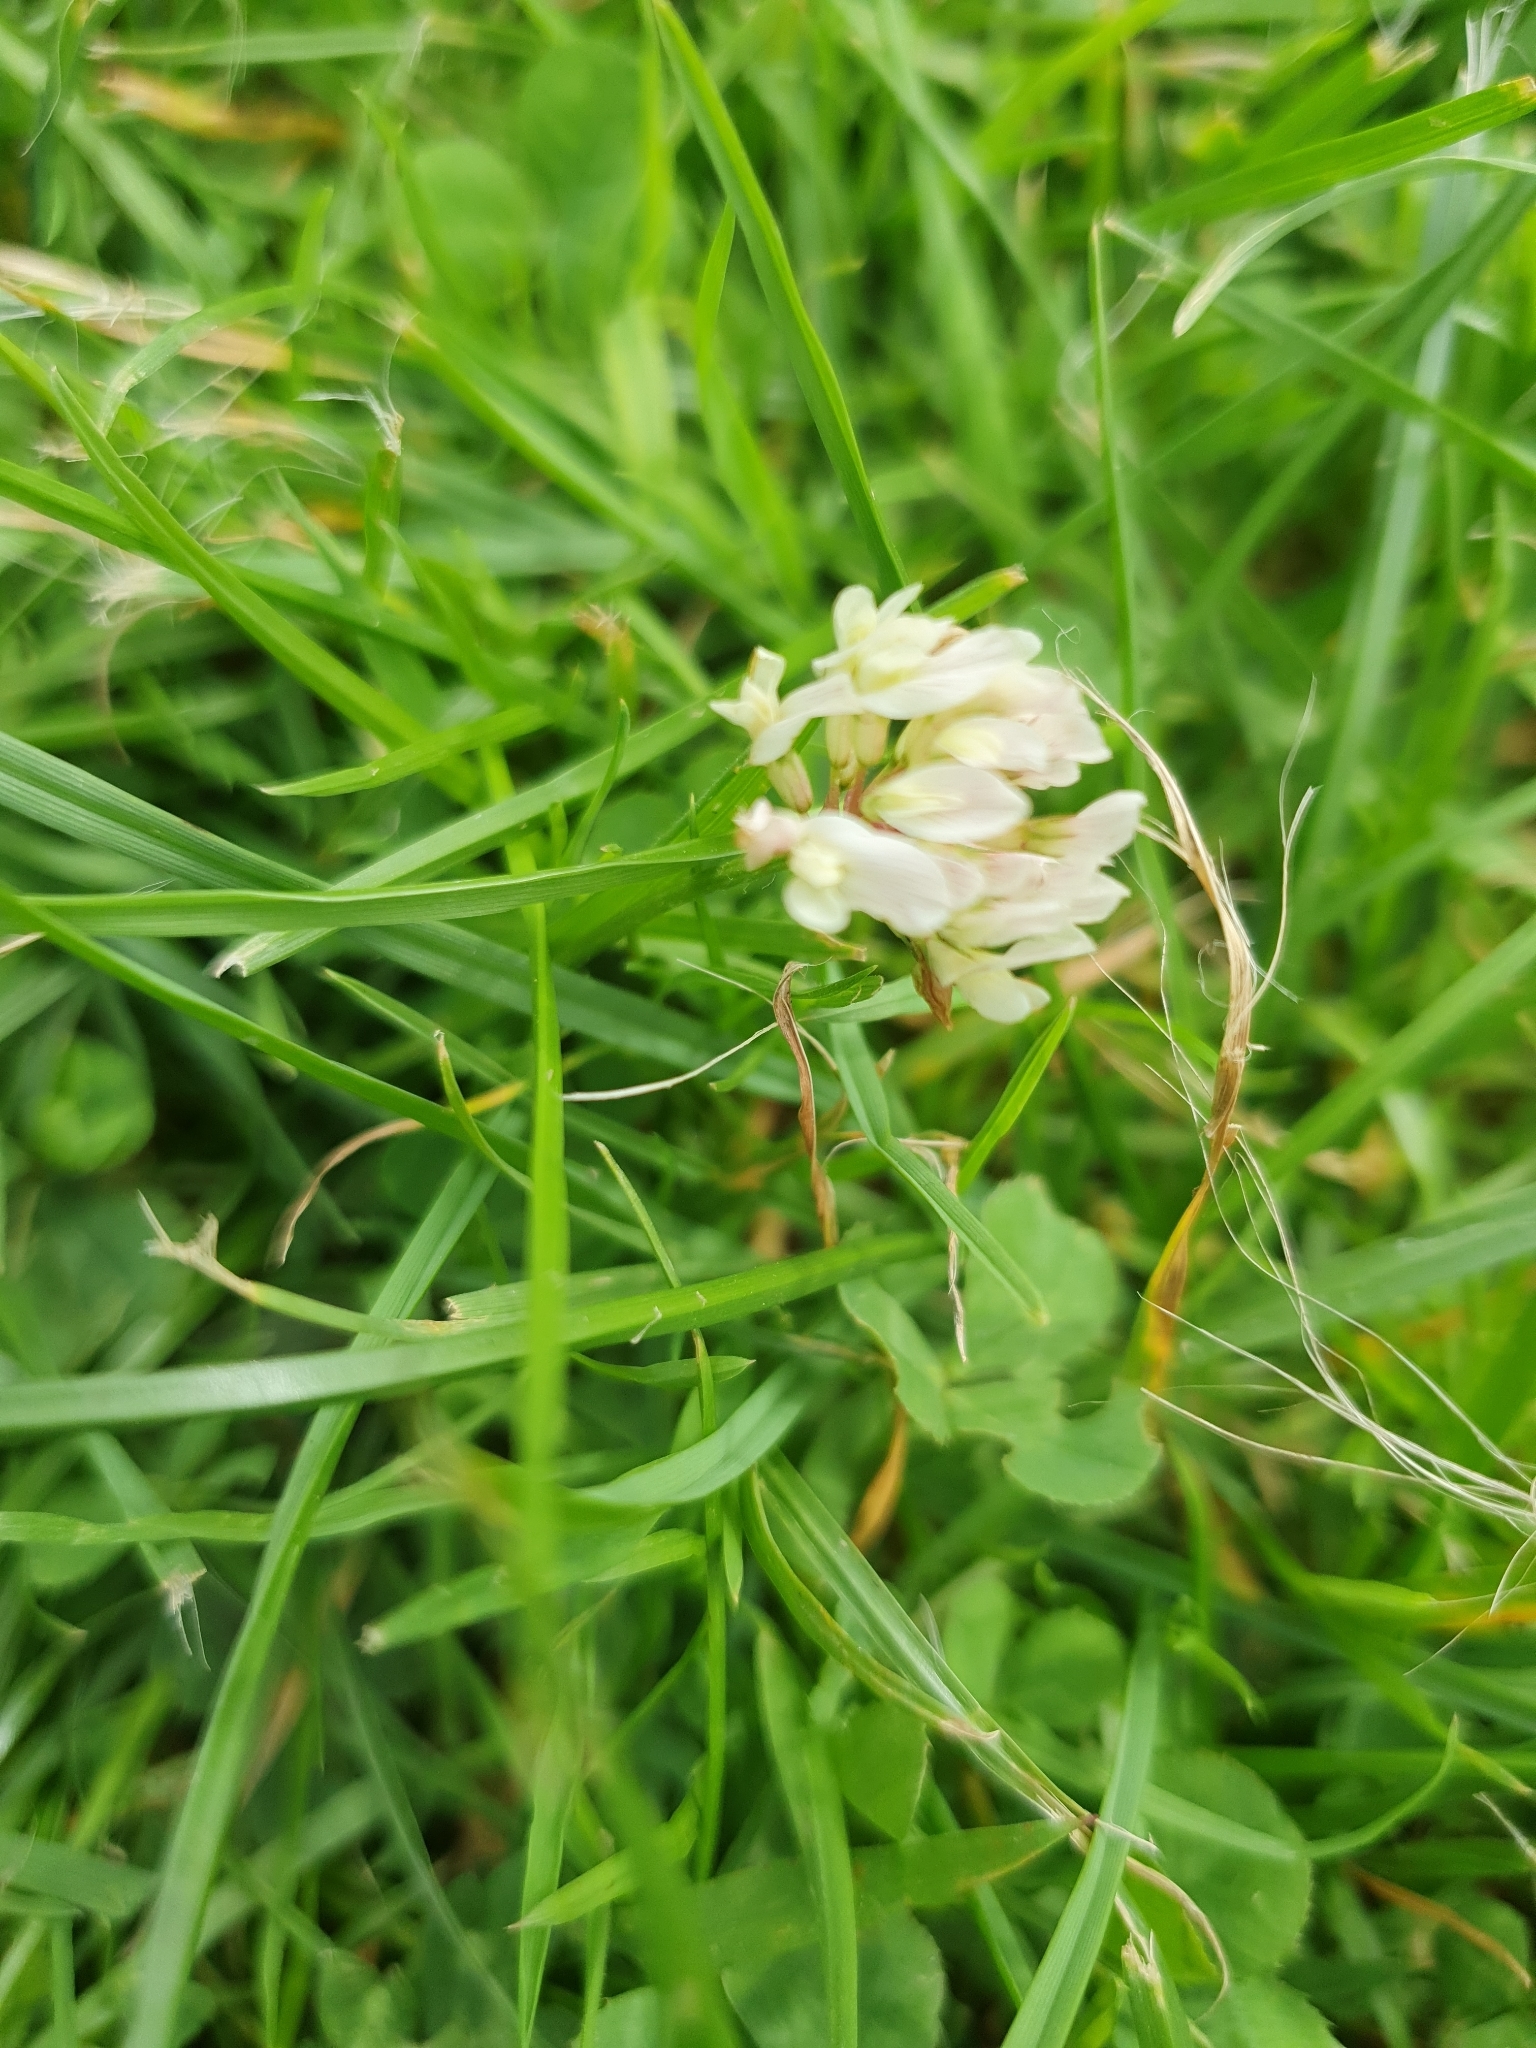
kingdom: Plantae
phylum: Tracheophyta
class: Magnoliopsida
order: Fabales
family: Fabaceae
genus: Trifolium
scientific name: Trifolium repens
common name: White clover
